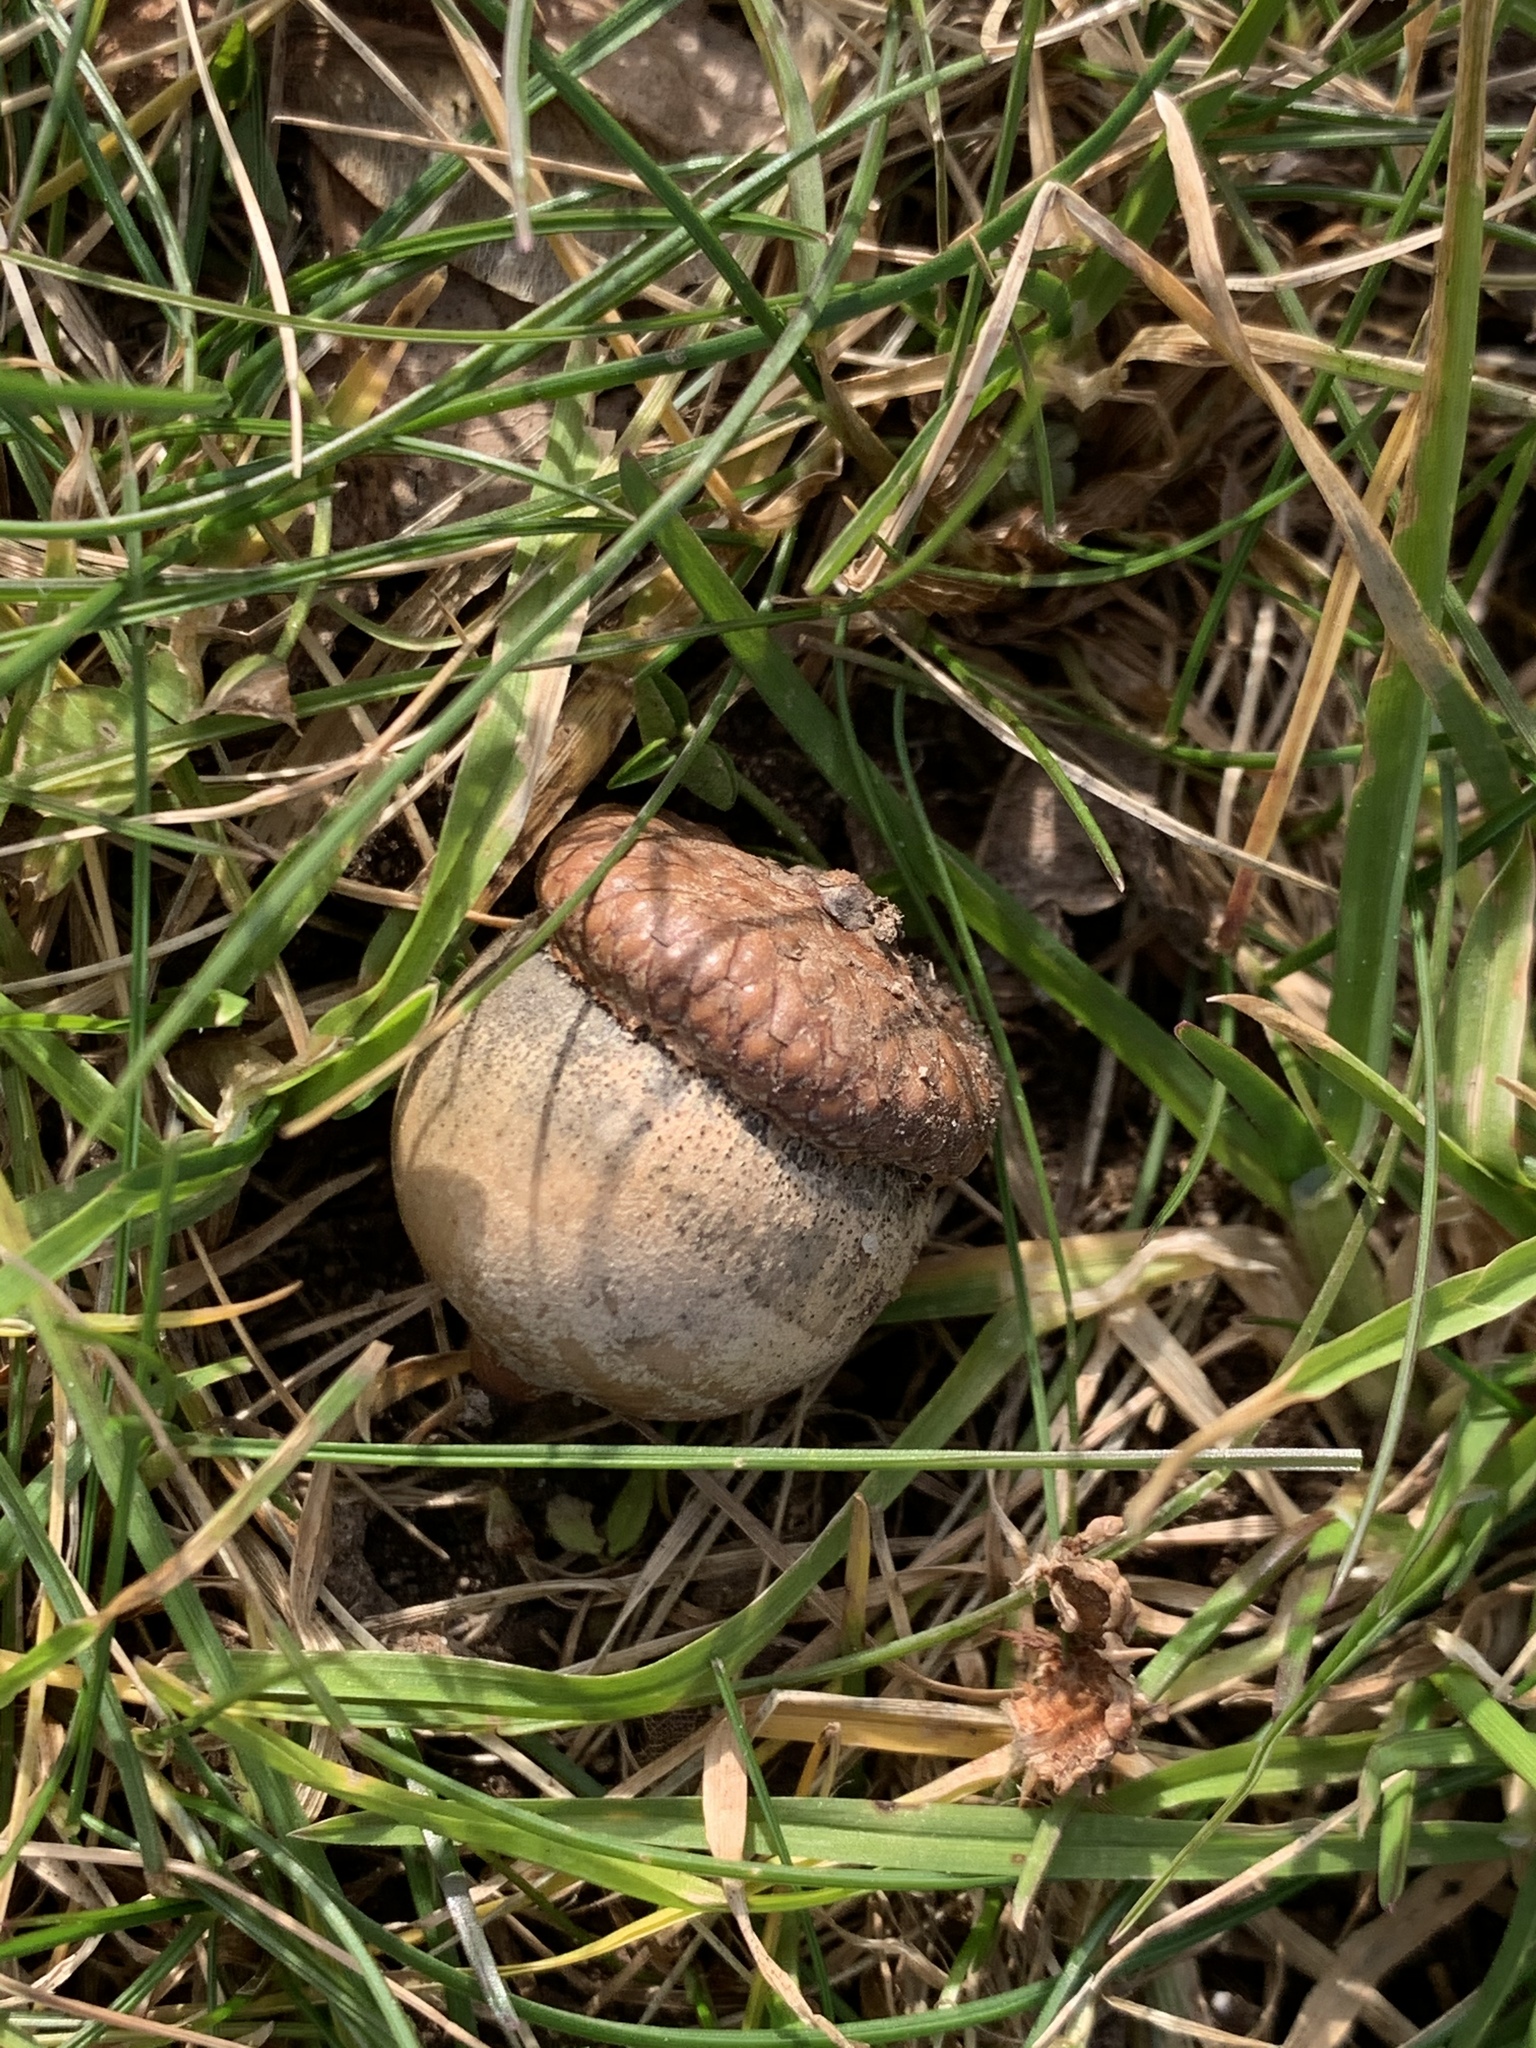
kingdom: Plantae
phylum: Tracheophyta
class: Magnoliopsida
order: Fagales
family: Fagaceae
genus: Quercus
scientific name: Quercus rubra
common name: Red oak
